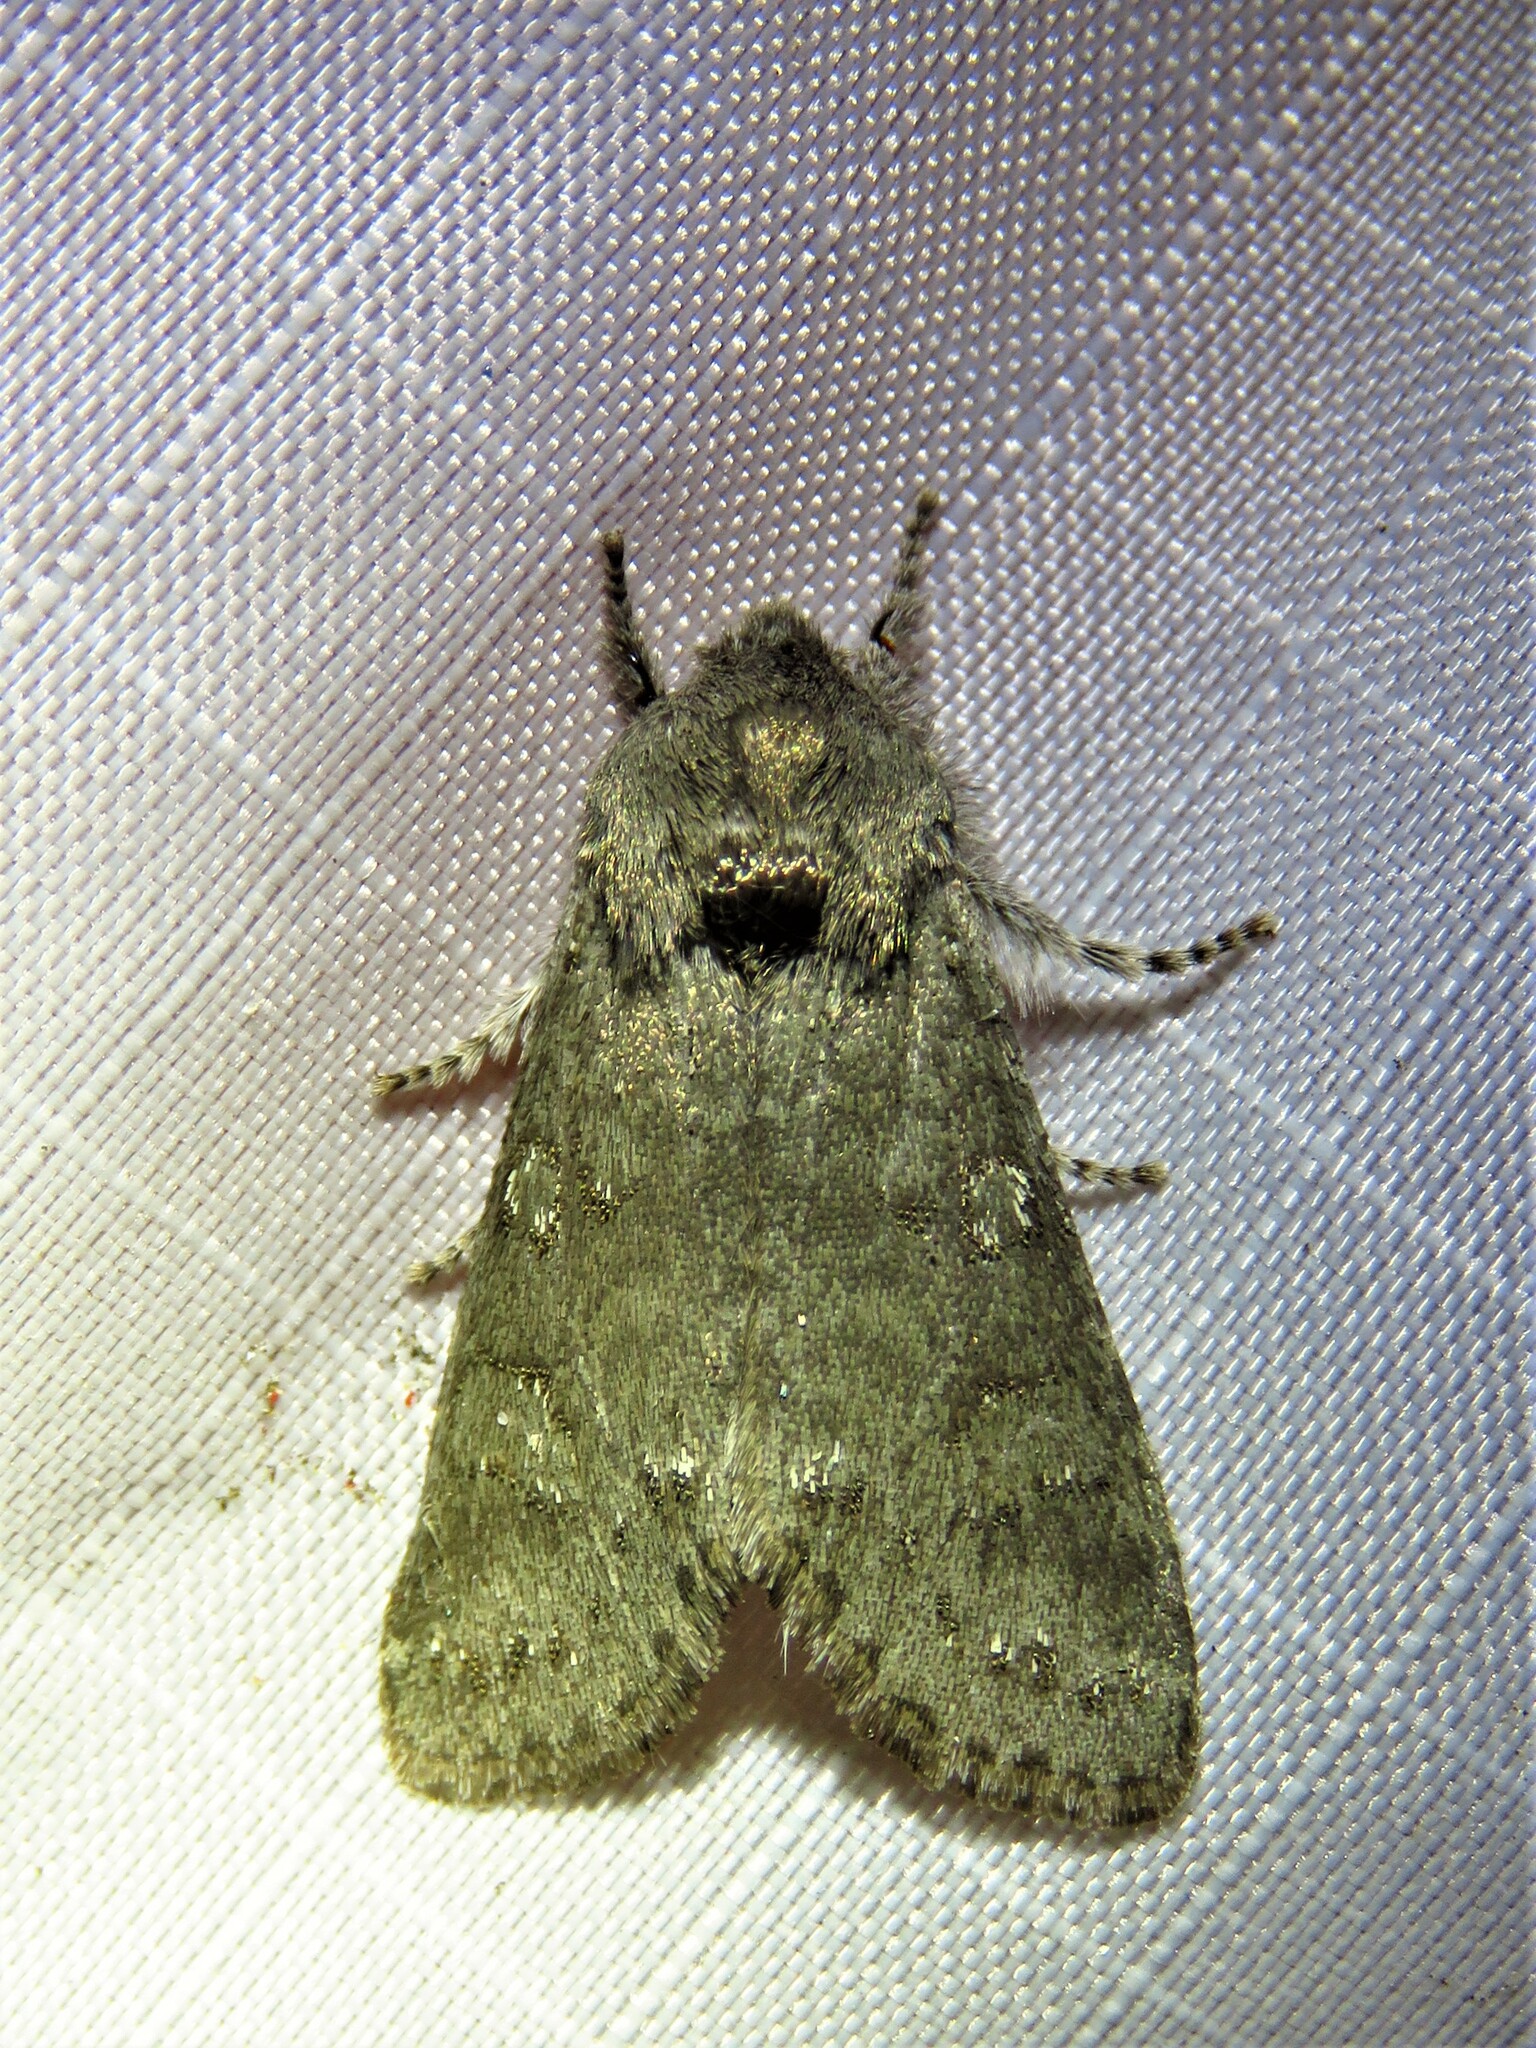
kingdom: Animalia
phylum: Arthropoda
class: Insecta
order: Lepidoptera
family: Noctuidae
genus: Psaphida
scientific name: Psaphida rolandi
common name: Roland's sallow
